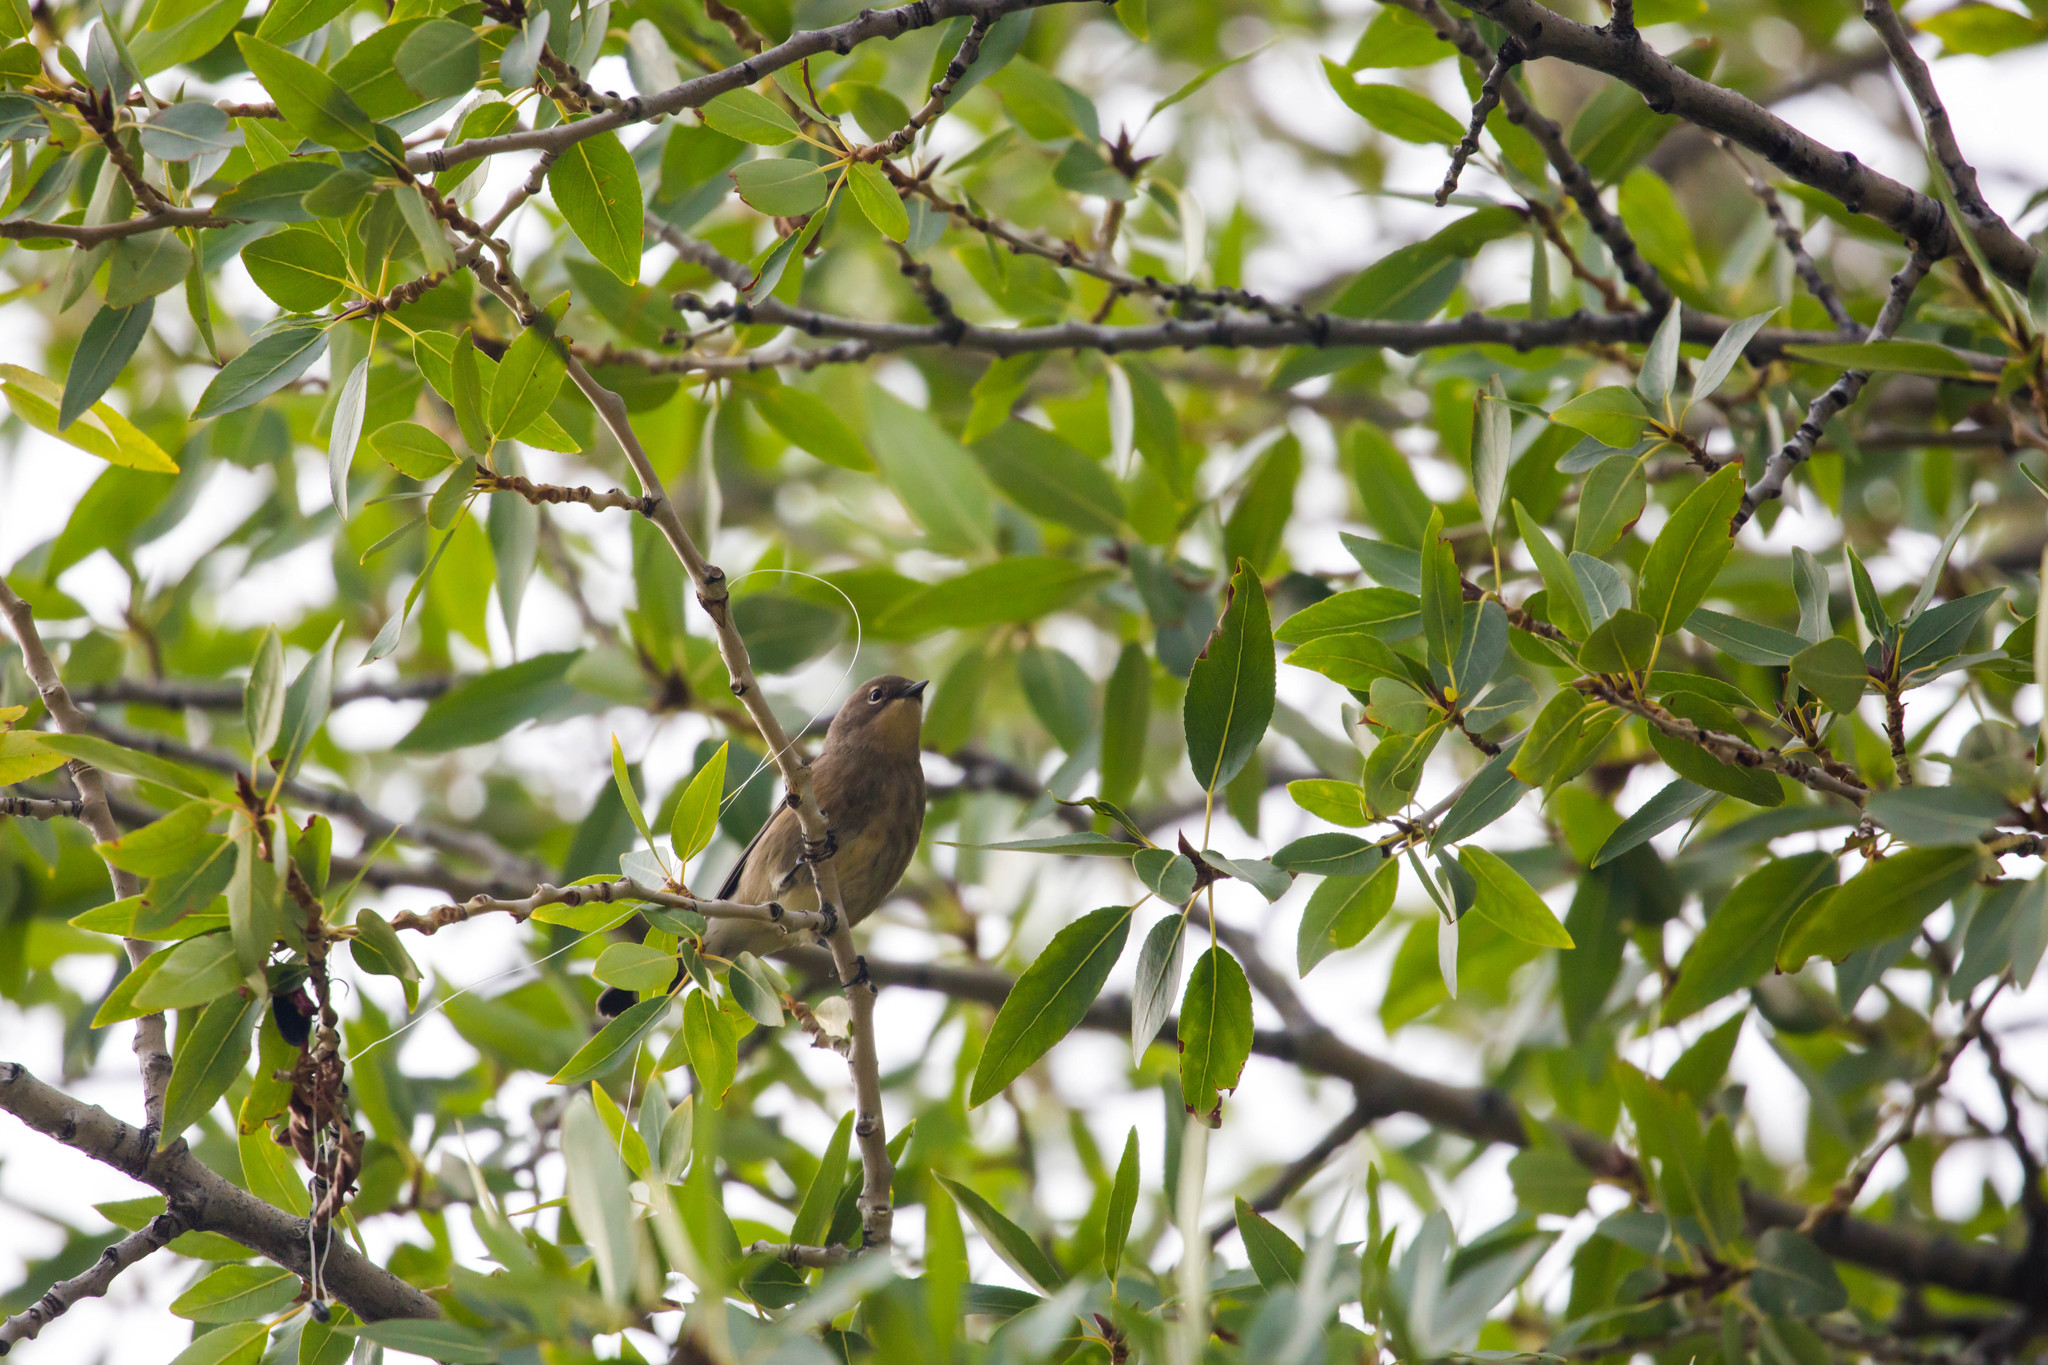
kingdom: Animalia
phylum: Chordata
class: Aves
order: Passeriformes
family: Parulidae
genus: Setophaga
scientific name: Setophaga coronata
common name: Myrtle warbler
